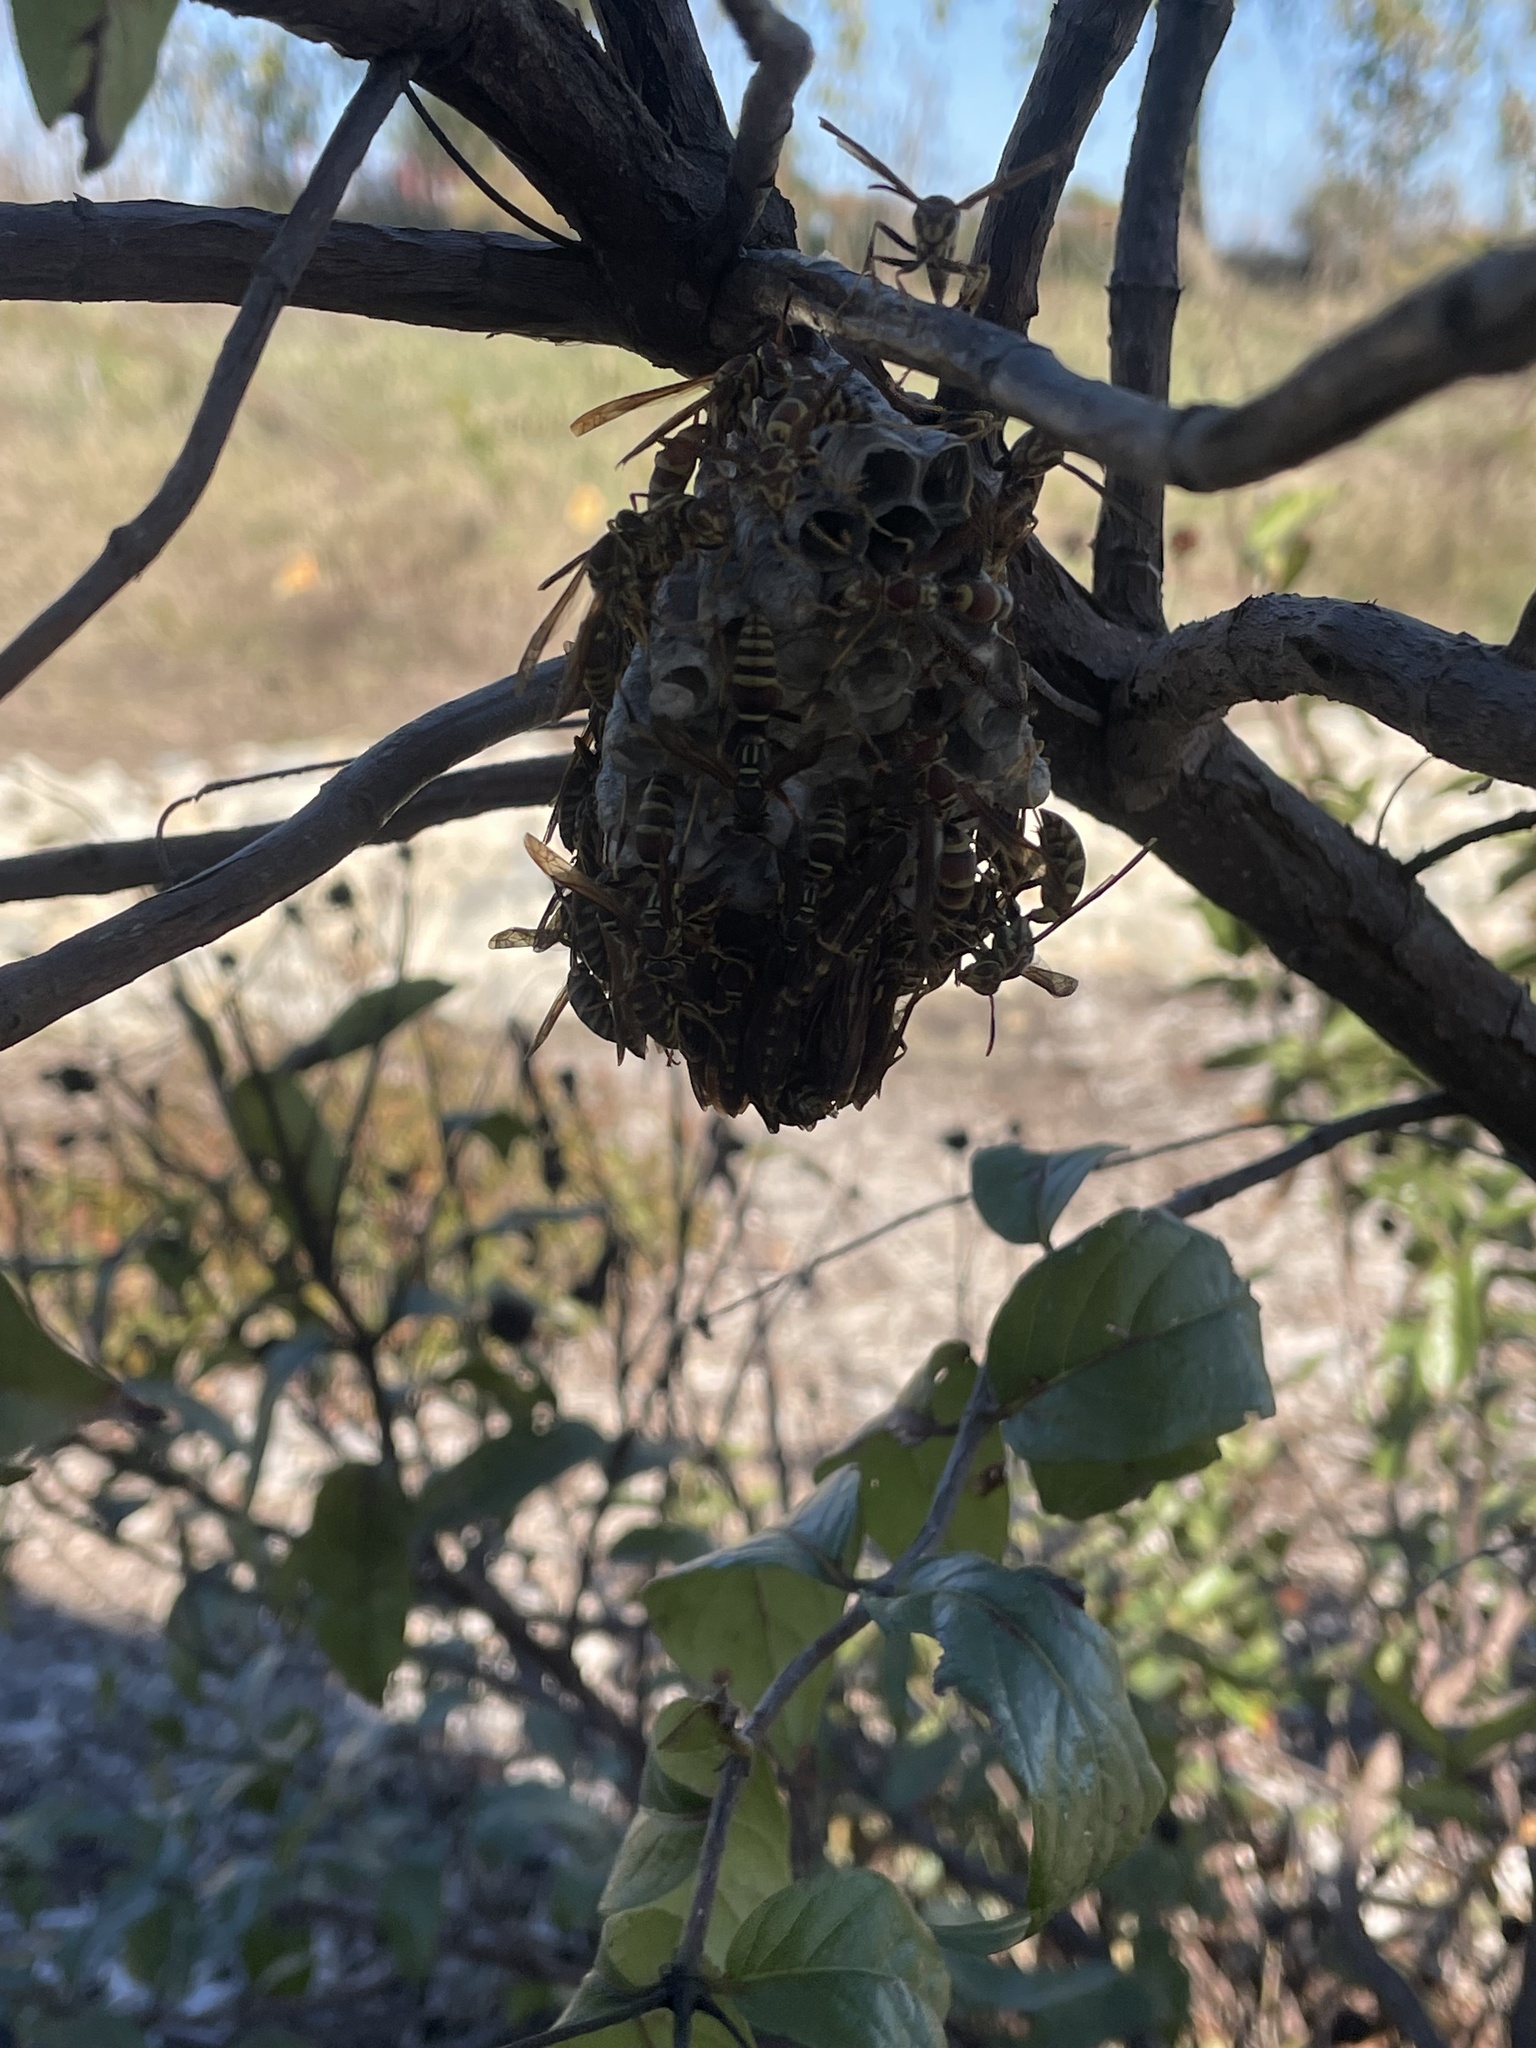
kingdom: Animalia
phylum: Arthropoda
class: Insecta
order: Hymenoptera
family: Eumenidae
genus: Polistes
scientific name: Polistes exclamans
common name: Paper wasp
